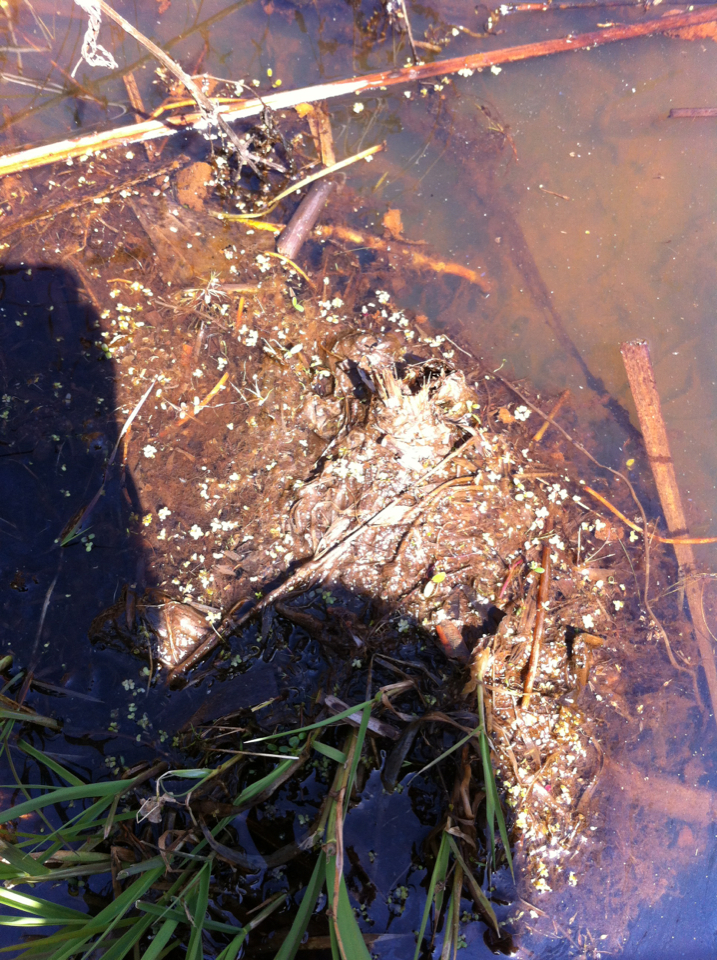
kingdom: Plantae
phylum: Tracheophyta
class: Liliopsida
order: Alismatales
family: Araceae
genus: Lemna
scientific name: Lemna
